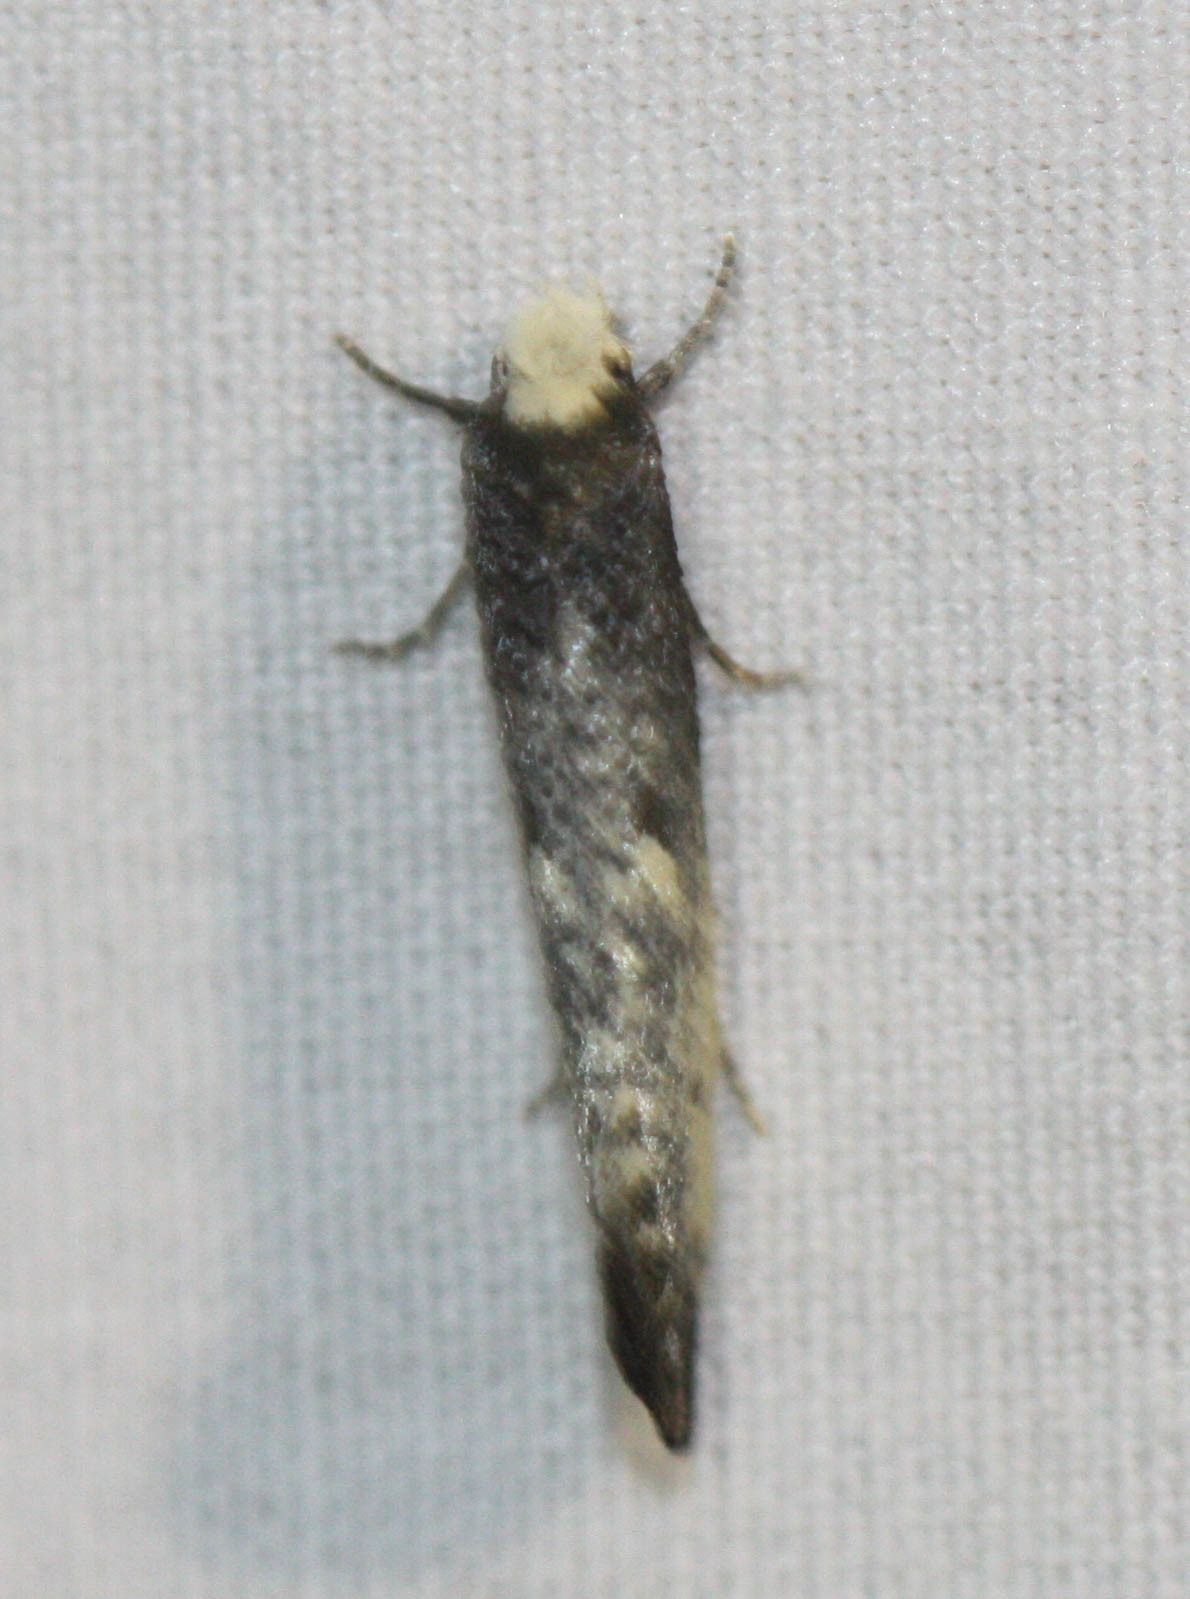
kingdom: Animalia
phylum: Arthropoda
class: Insecta
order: Lepidoptera
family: Tineidae
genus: Tinea
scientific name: Tinea occidentella
